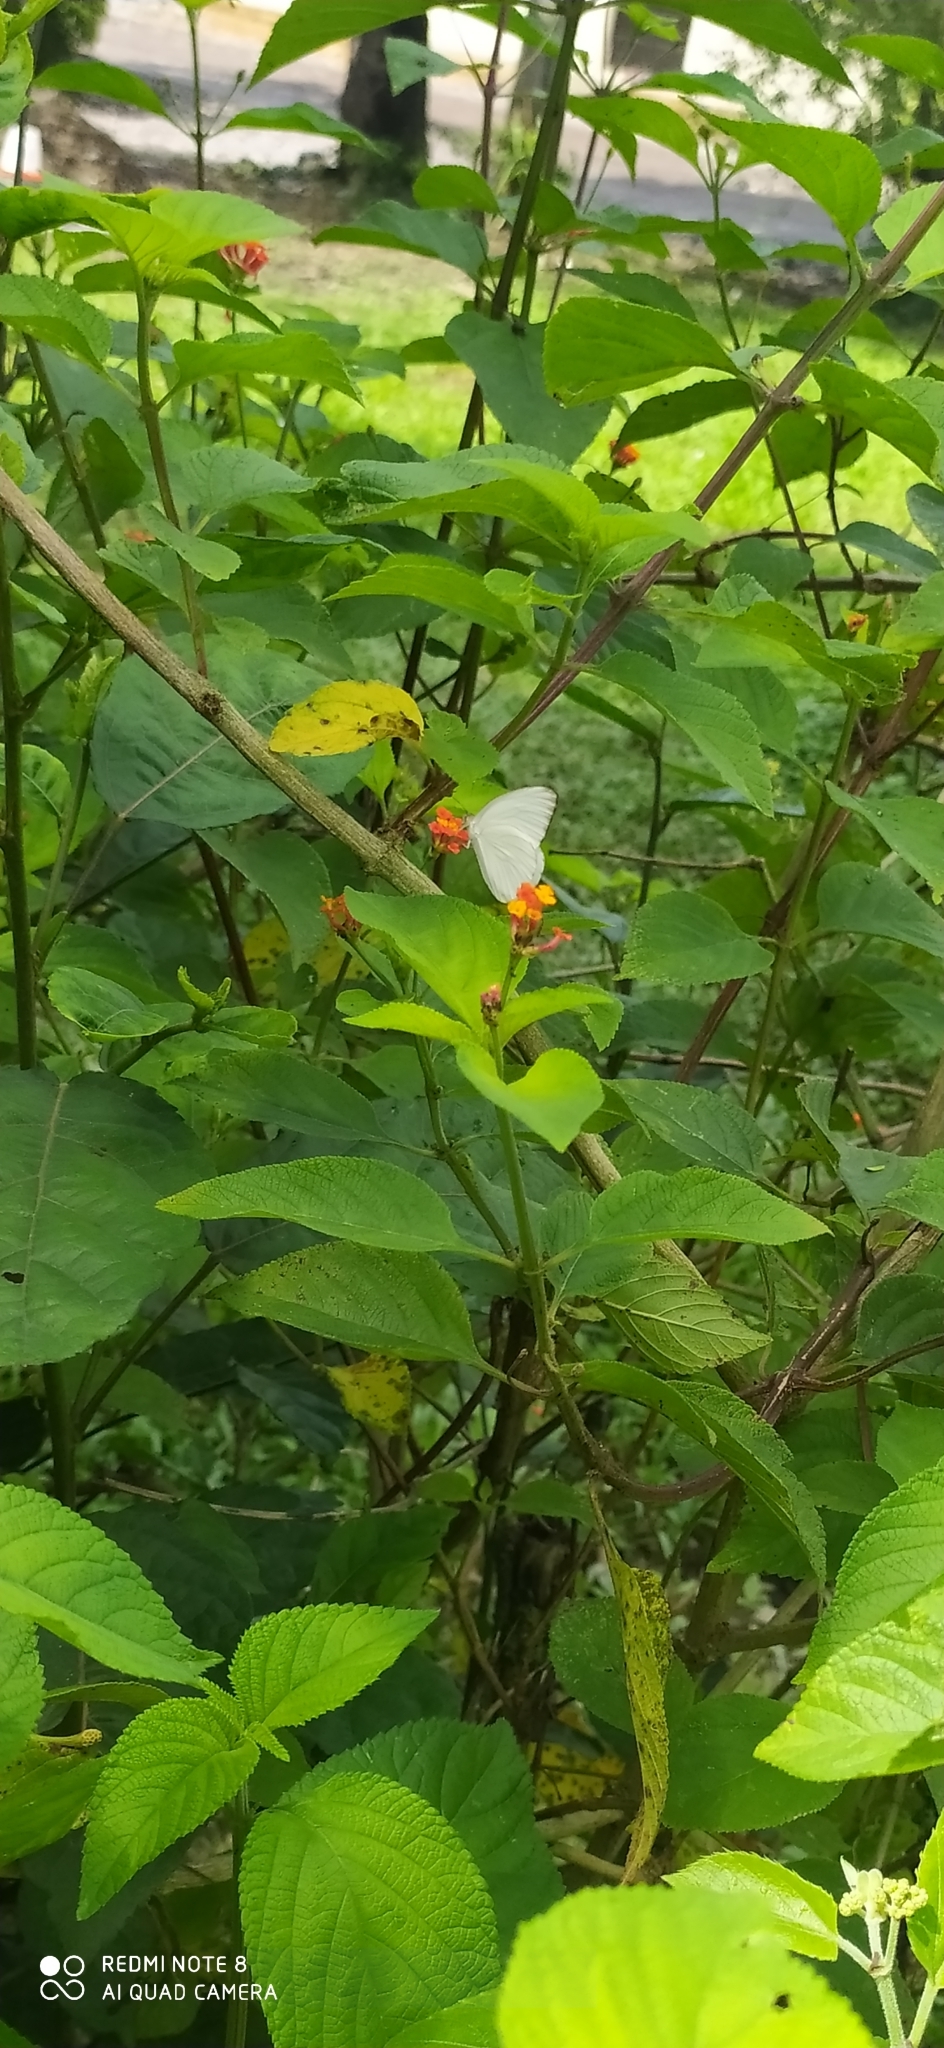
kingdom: Animalia
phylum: Arthropoda
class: Insecta
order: Lepidoptera
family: Pieridae
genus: Ascia
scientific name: Ascia monuste
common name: Great southern white
